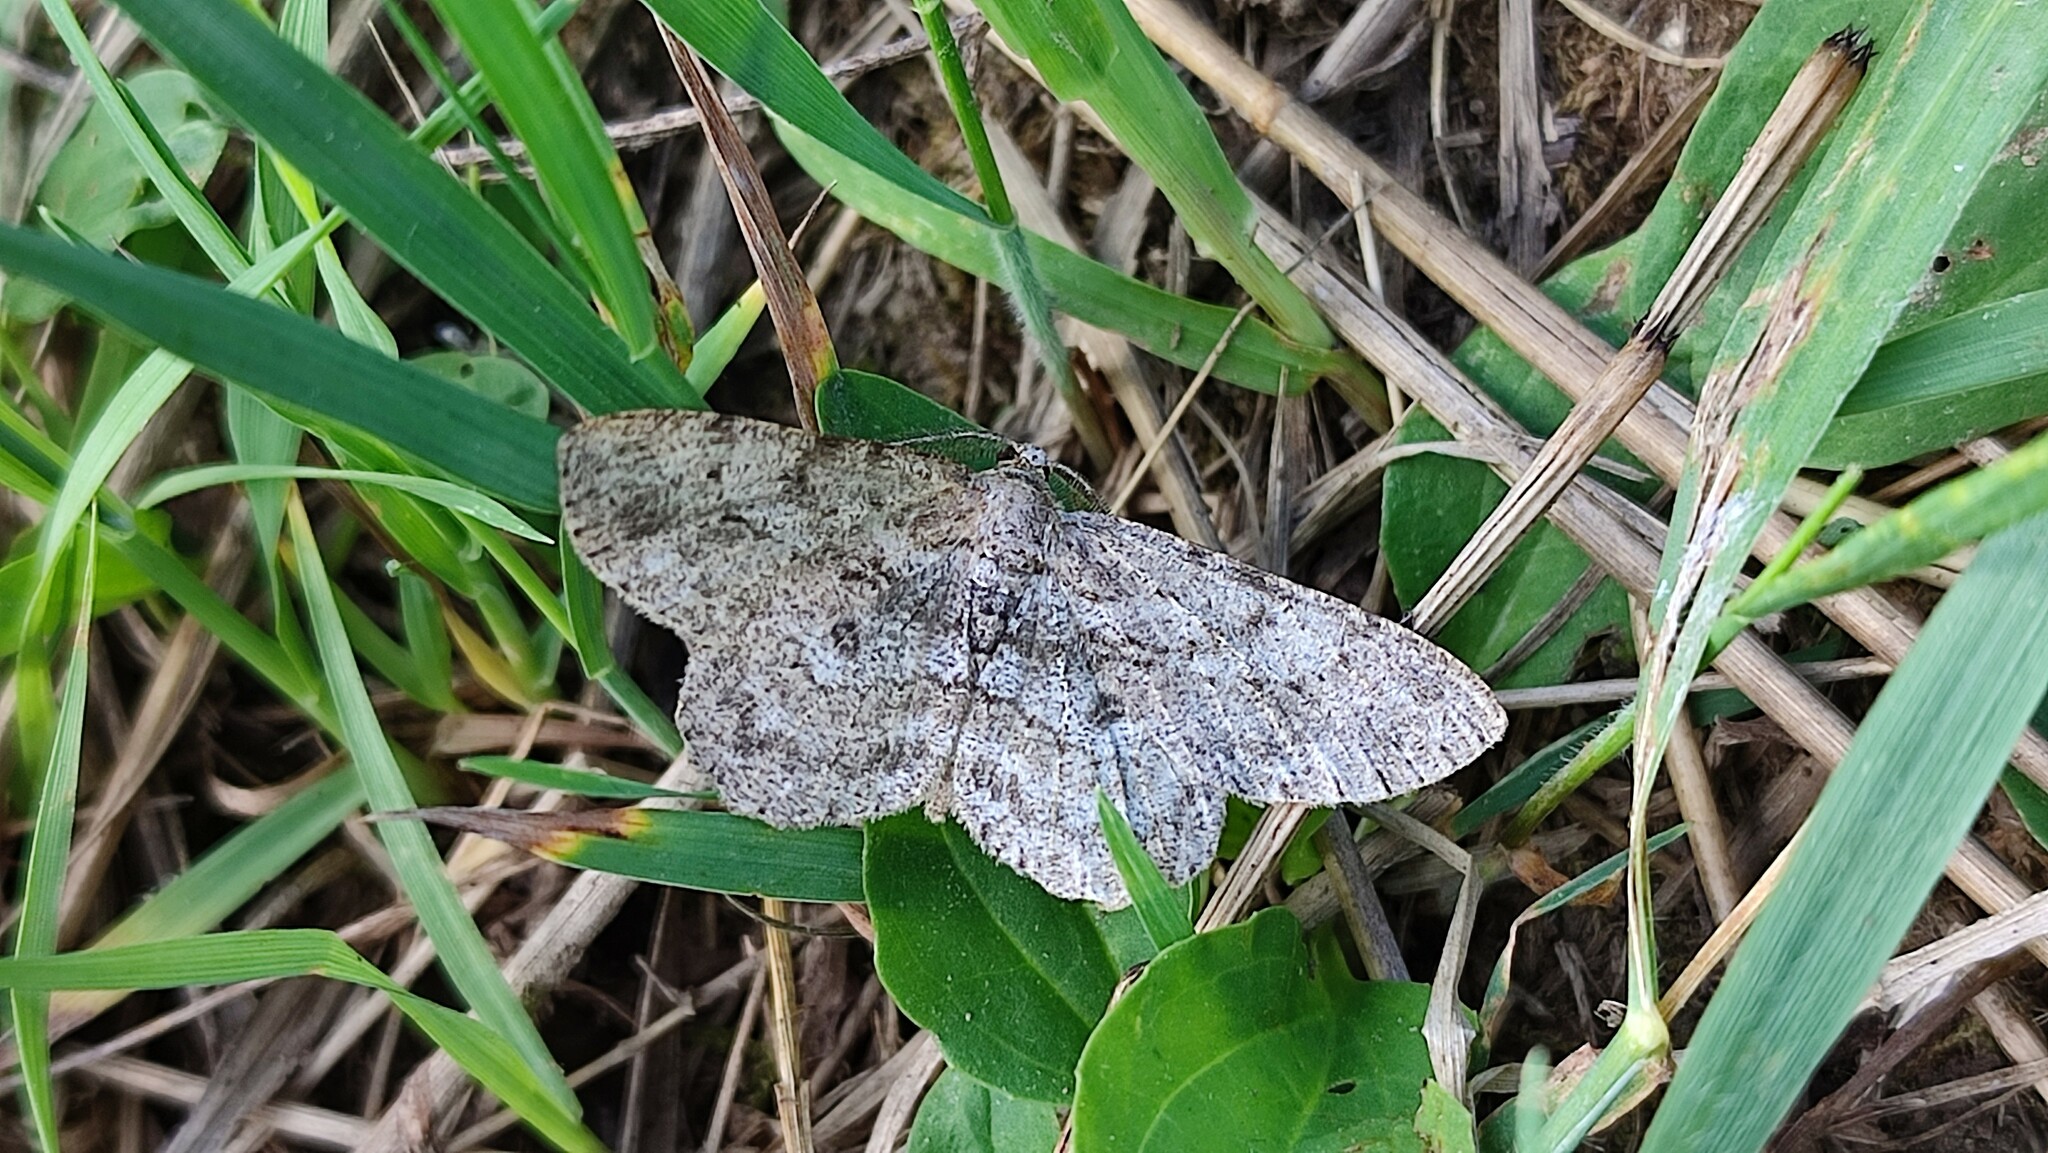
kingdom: Animalia
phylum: Arthropoda
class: Insecta
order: Lepidoptera
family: Geometridae
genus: Hypomecis
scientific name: Hypomecis punctinalis
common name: Pale oak beauty
